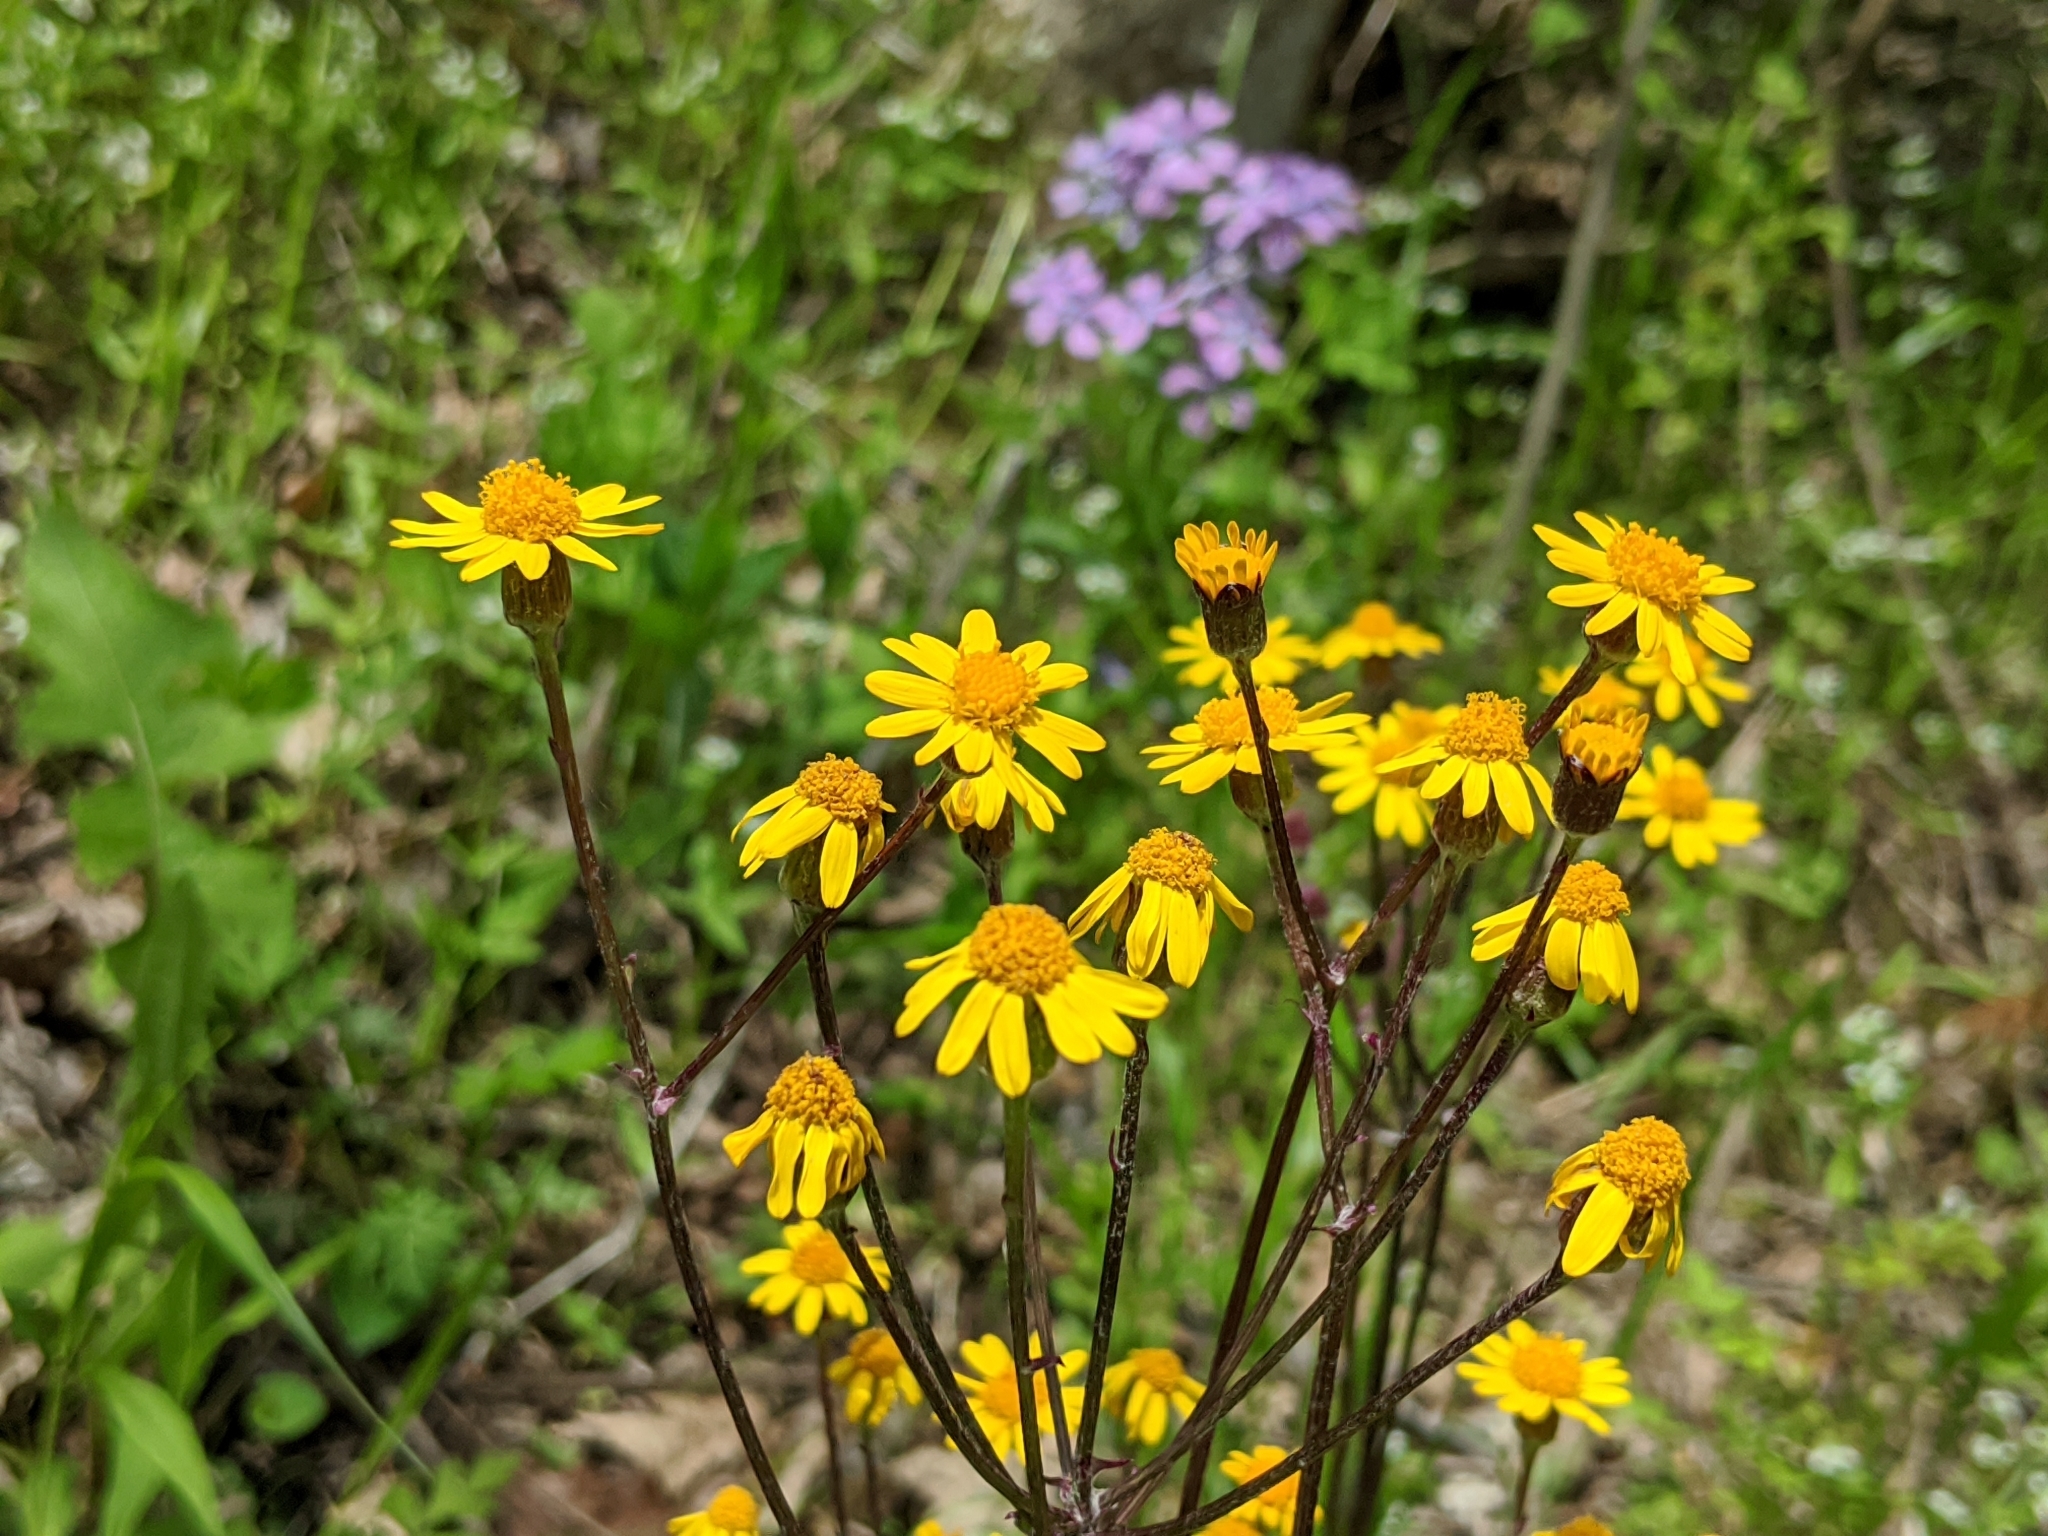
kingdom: Plantae
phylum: Tracheophyta
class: Magnoliopsida
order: Asterales
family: Asteraceae
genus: Packera
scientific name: Packera aurea
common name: Golden groundsel
